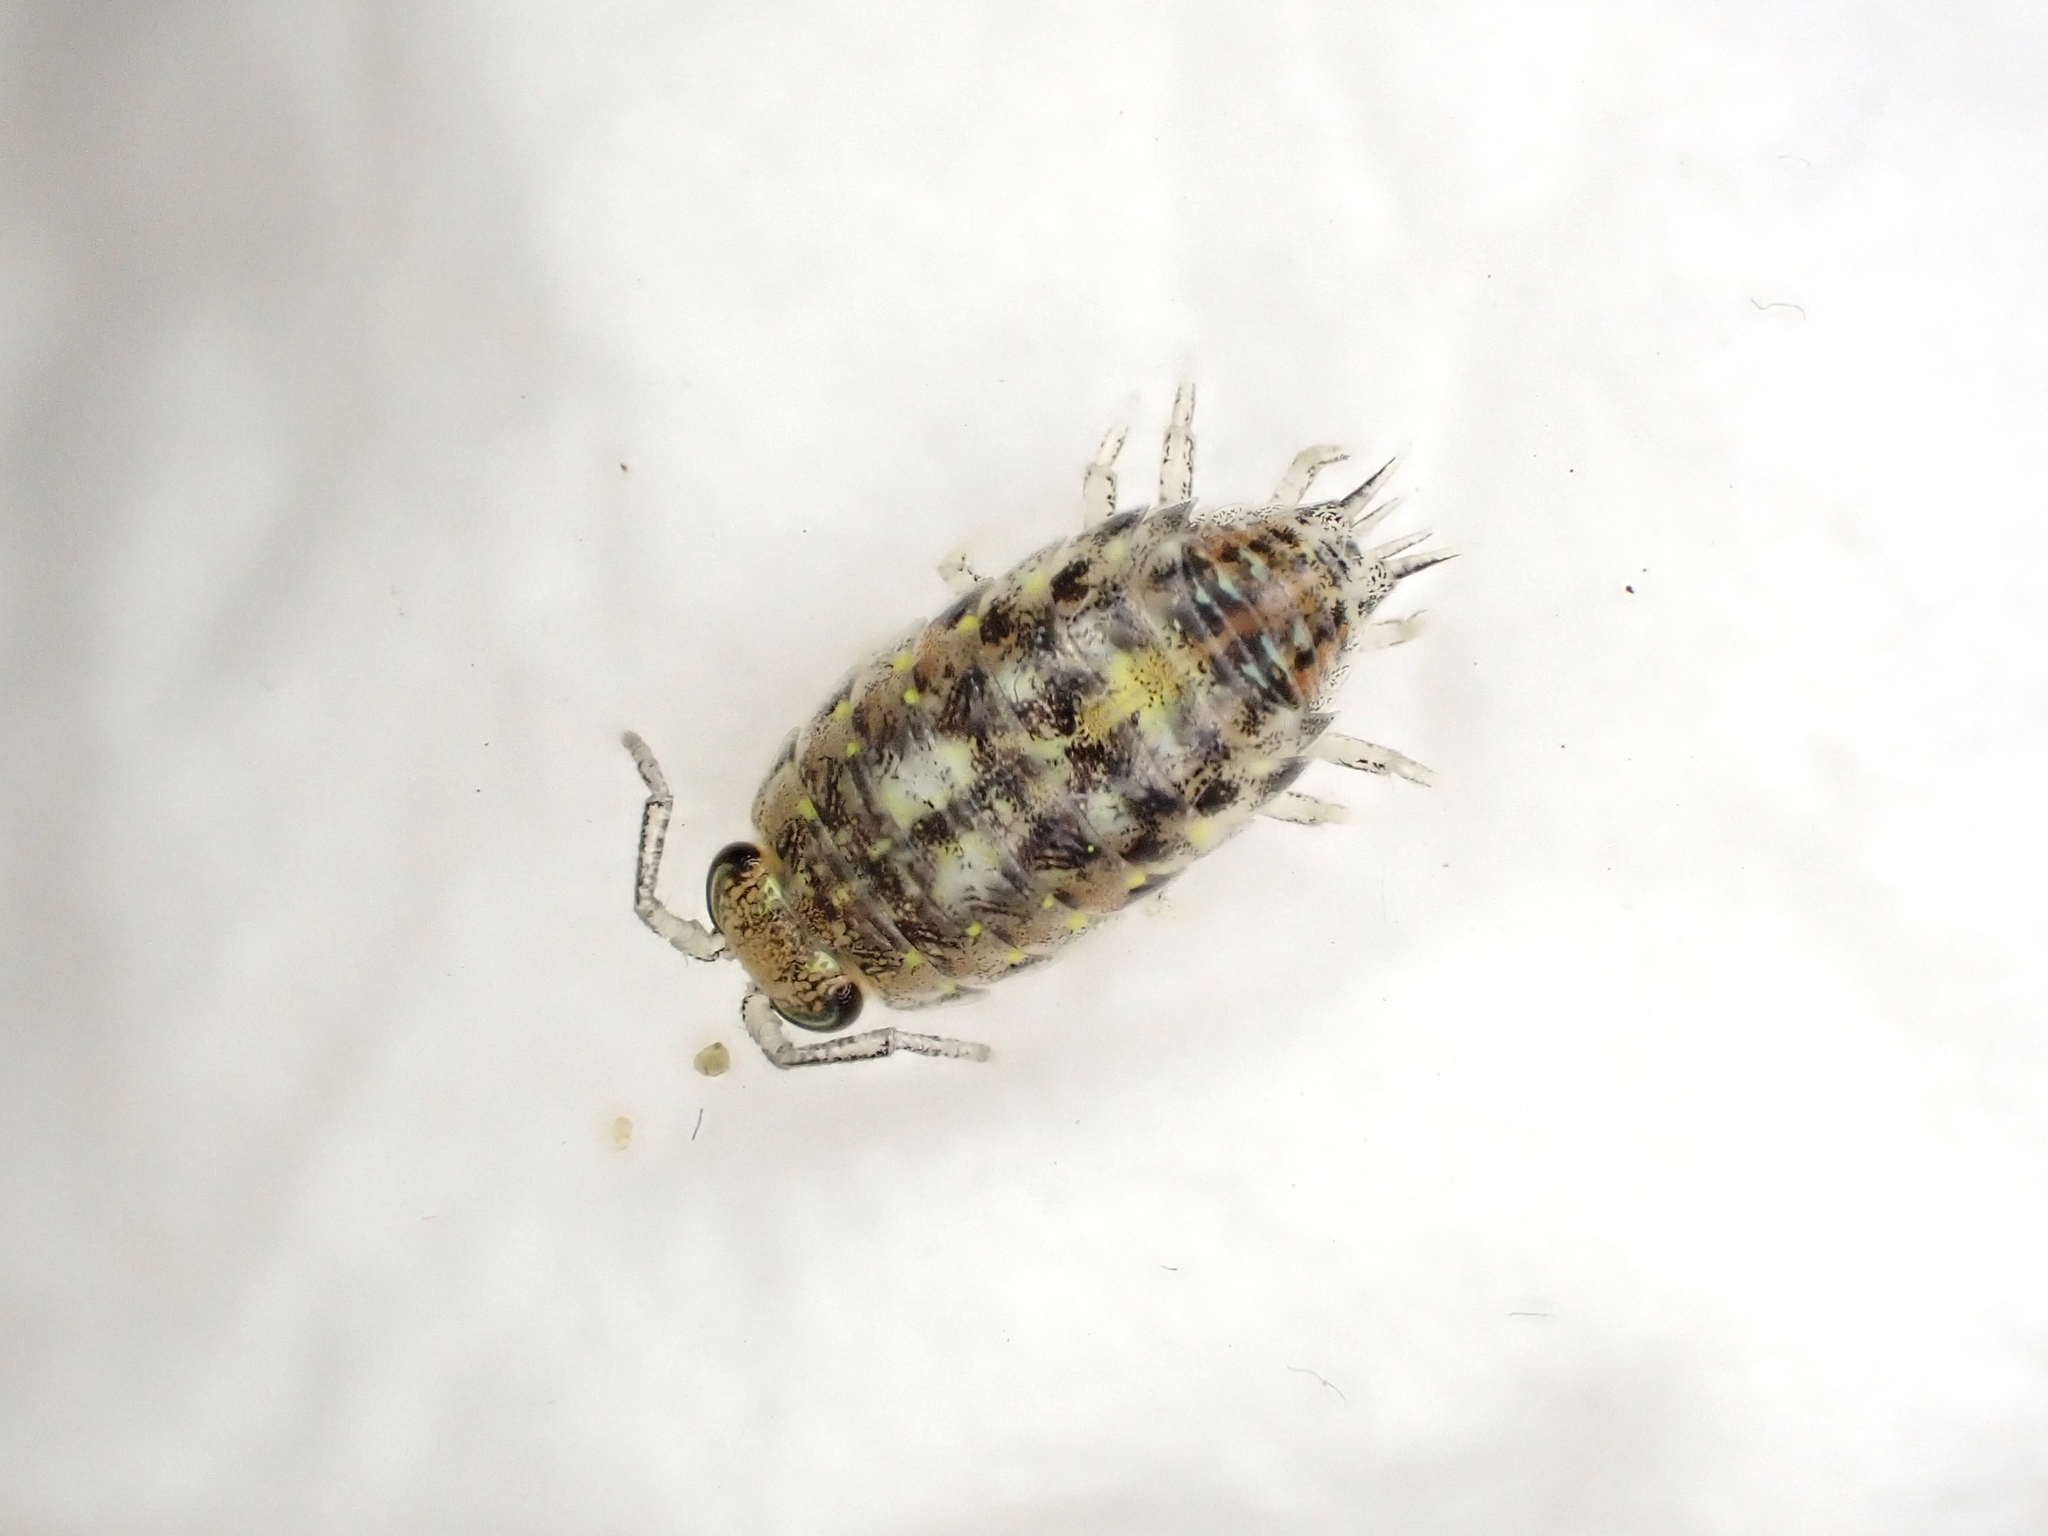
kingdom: Animalia
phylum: Arthropoda
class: Malacostraca
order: Isopoda
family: Scyphacidae
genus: Actaecia
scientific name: Actaecia euchroa
